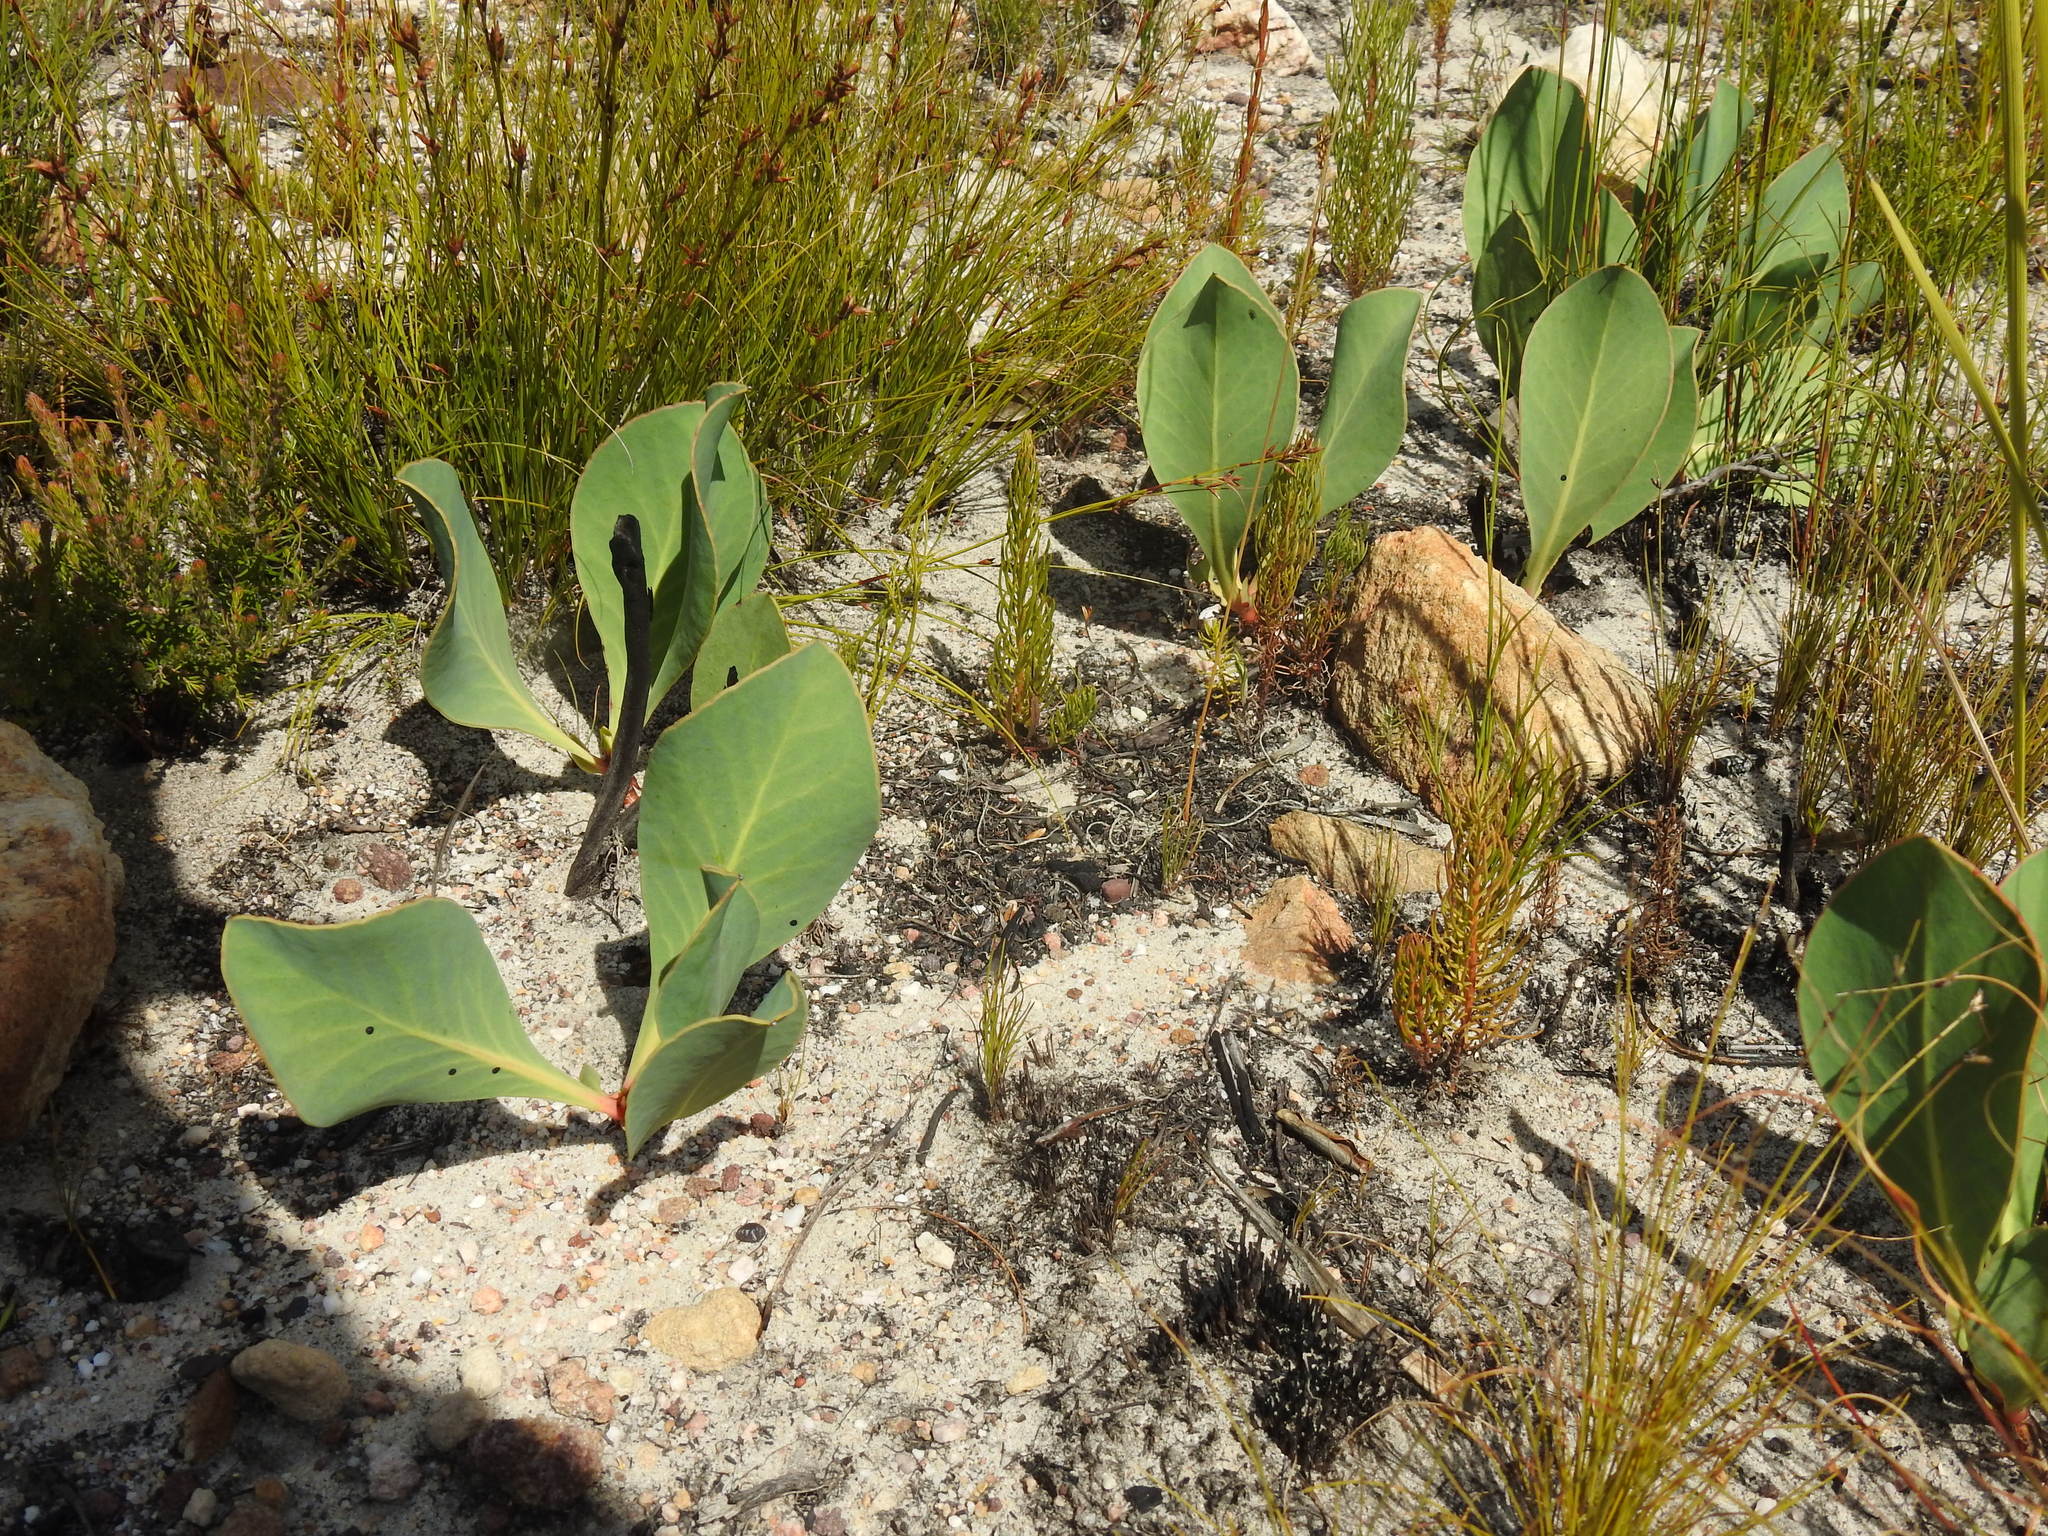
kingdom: Plantae
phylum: Tracheophyta
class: Magnoliopsida
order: Proteales
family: Proteaceae
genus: Protea
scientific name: Protea acaulos
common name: Common ground sugarbush
